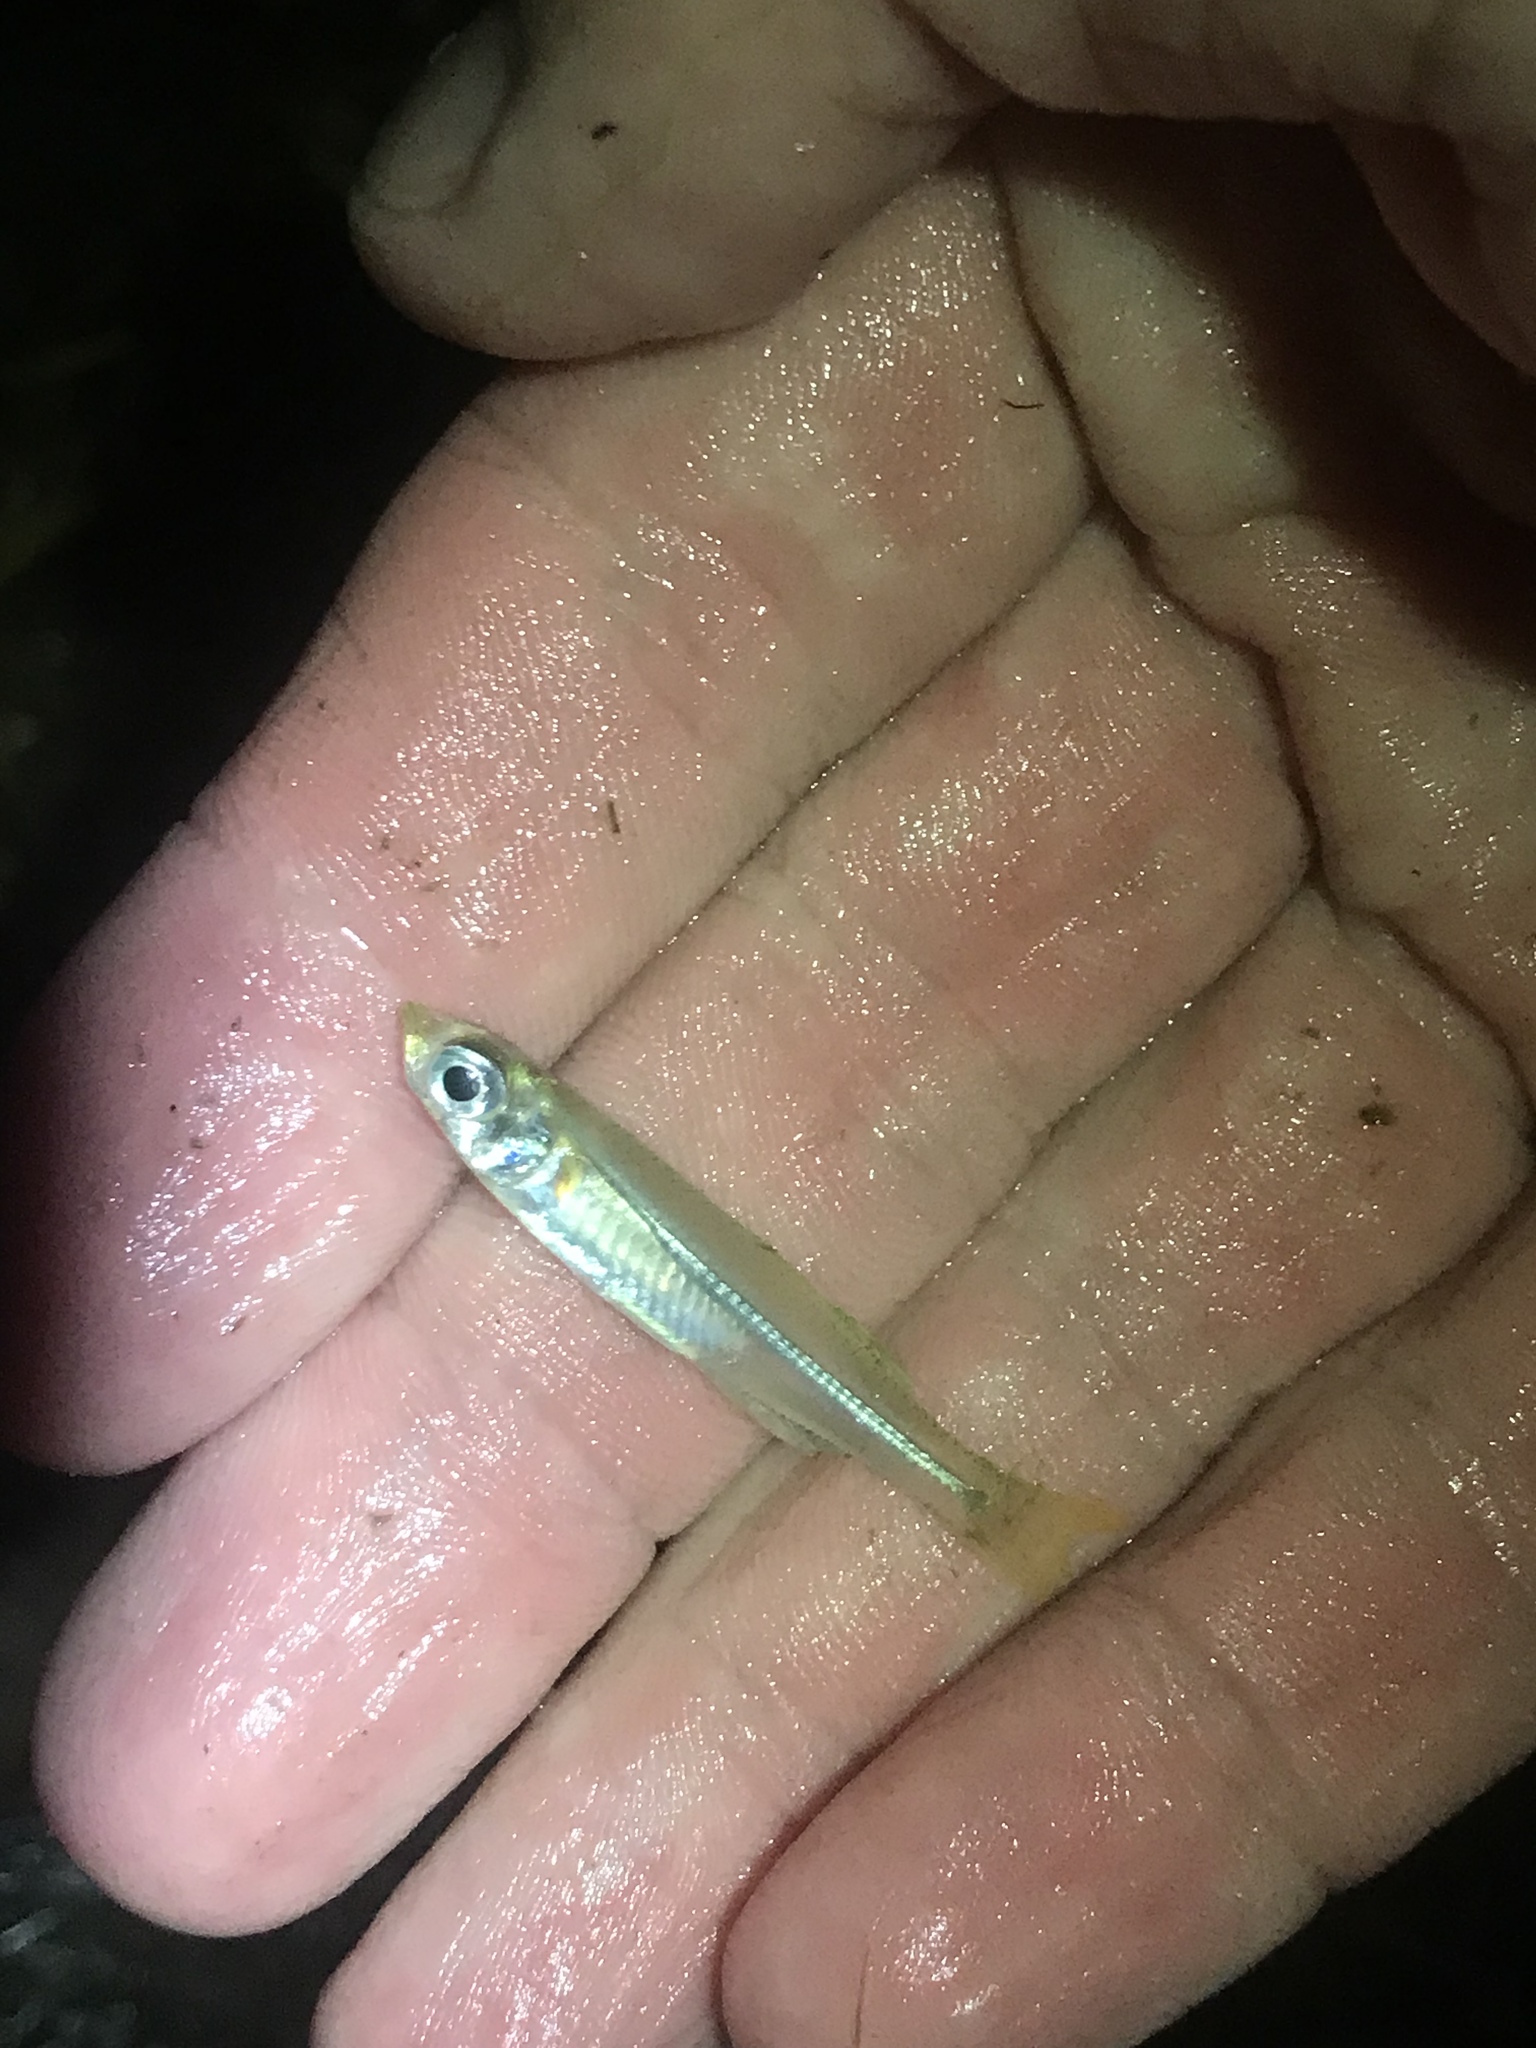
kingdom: Animalia
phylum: Chordata
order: Atheriniformes
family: Atherinopsidae
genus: Menidia
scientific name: Menidia beryllina
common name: Inland silverside
